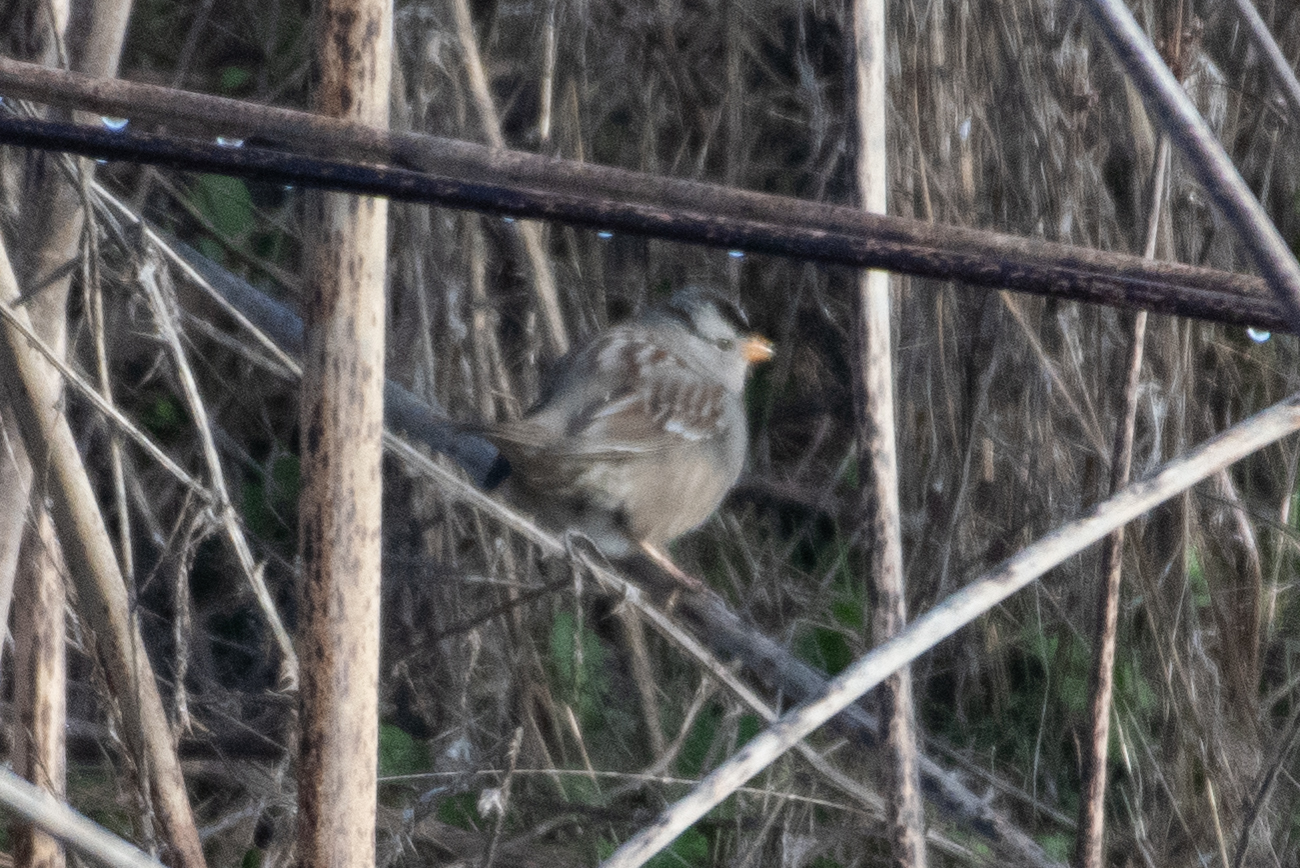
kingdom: Animalia
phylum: Chordata
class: Aves
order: Passeriformes
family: Passerellidae
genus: Zonotrichia
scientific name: Zonotrichia leucophrys
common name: White-crowned sparrow
